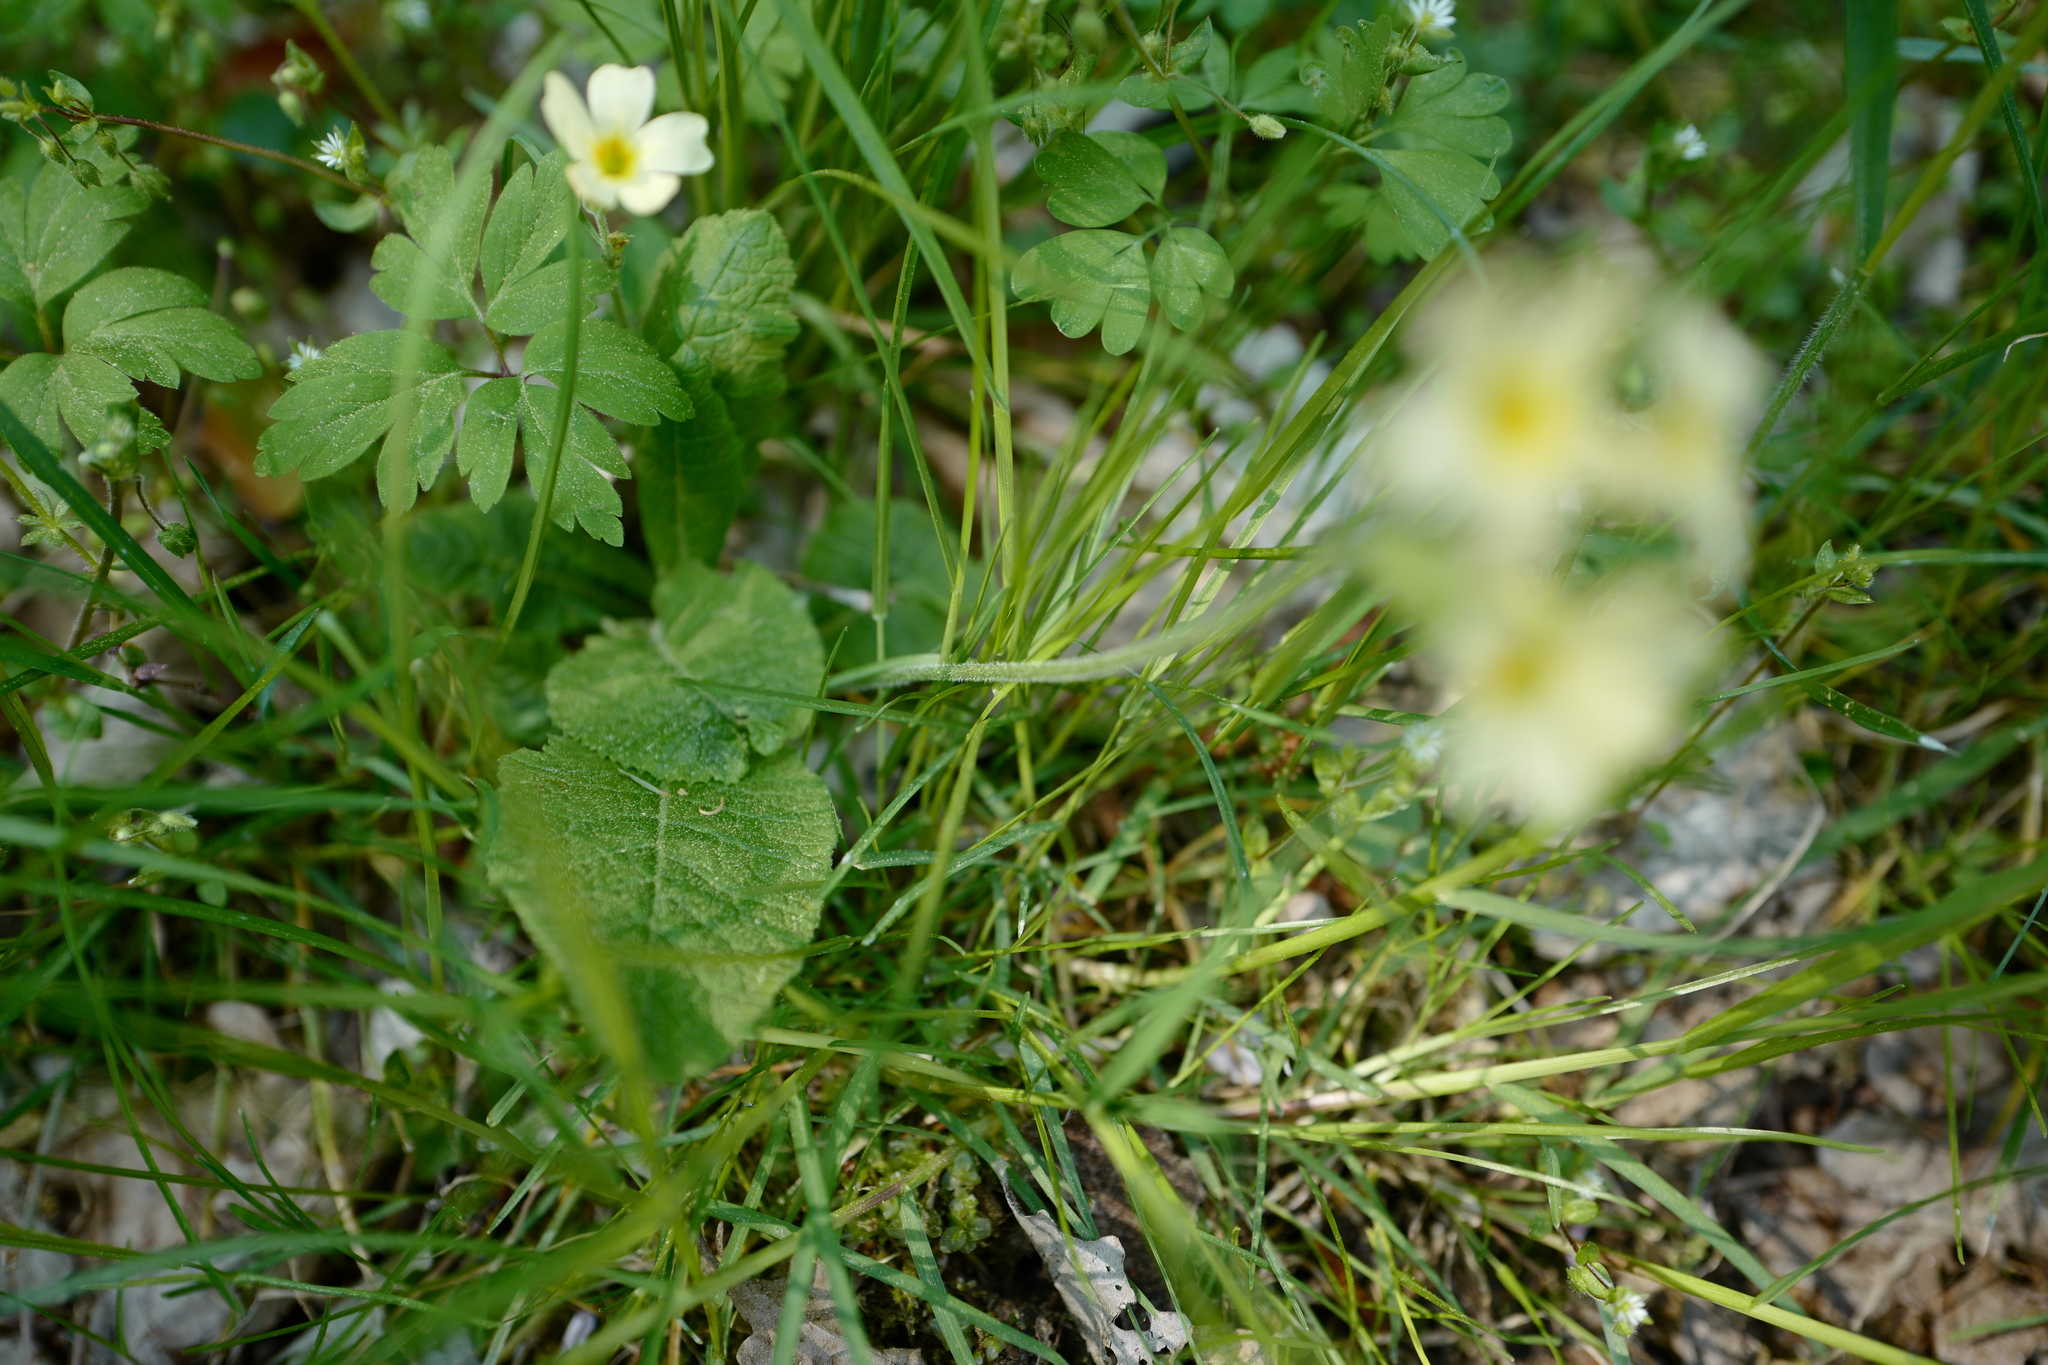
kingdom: Plantae
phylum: Tracheophyta
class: Magnoliopsida
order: Ericales
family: Primulaceae
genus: Primula
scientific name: Primula elatior
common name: Oxlip
